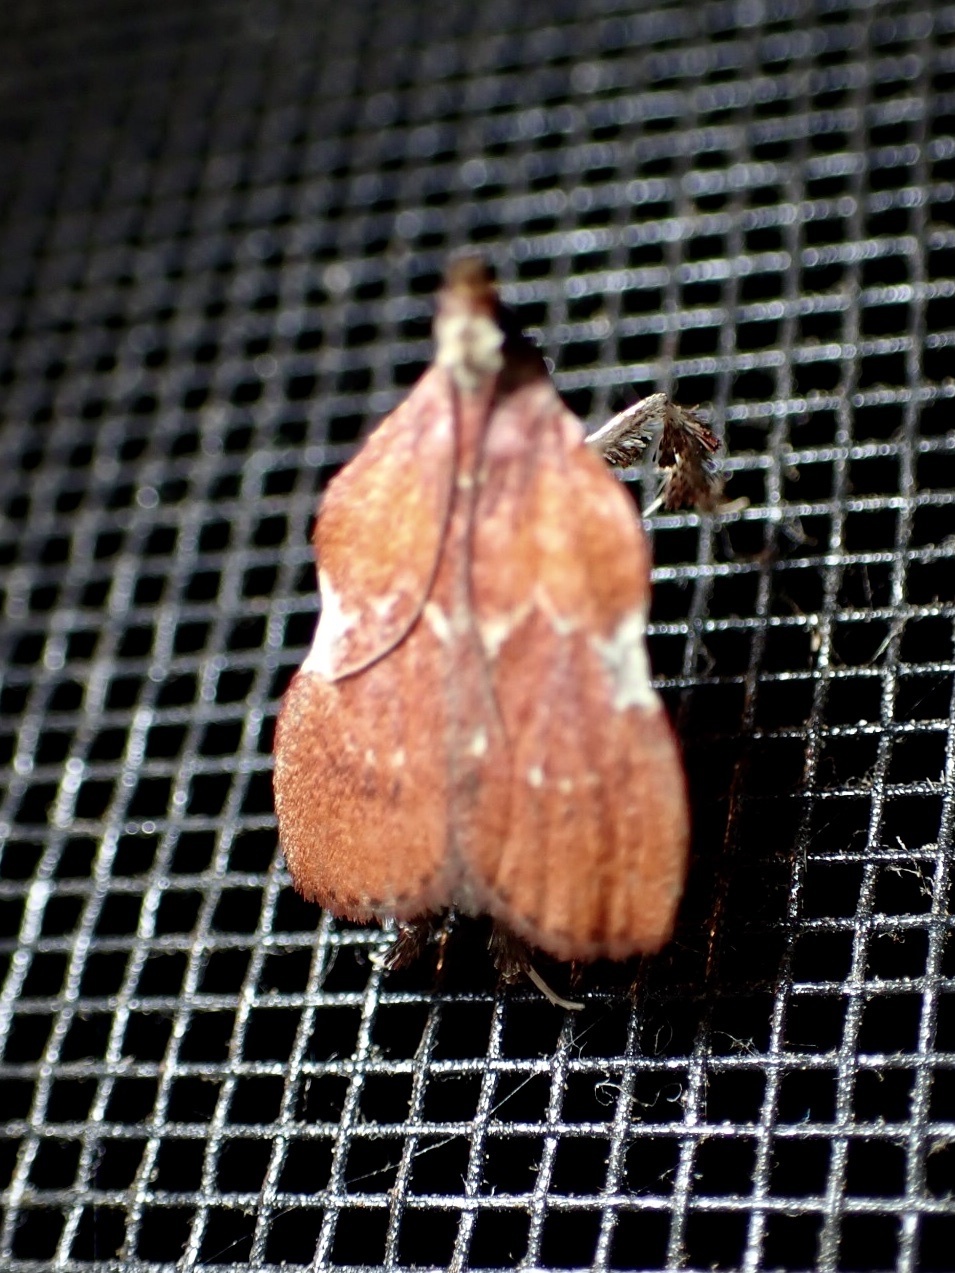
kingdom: Animalia
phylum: Arthropoda
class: Insecta
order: Lepidoptera
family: Pyralidae
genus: Galasa
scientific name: Galasa nigrinodis
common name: Boxwood leaftier moth
